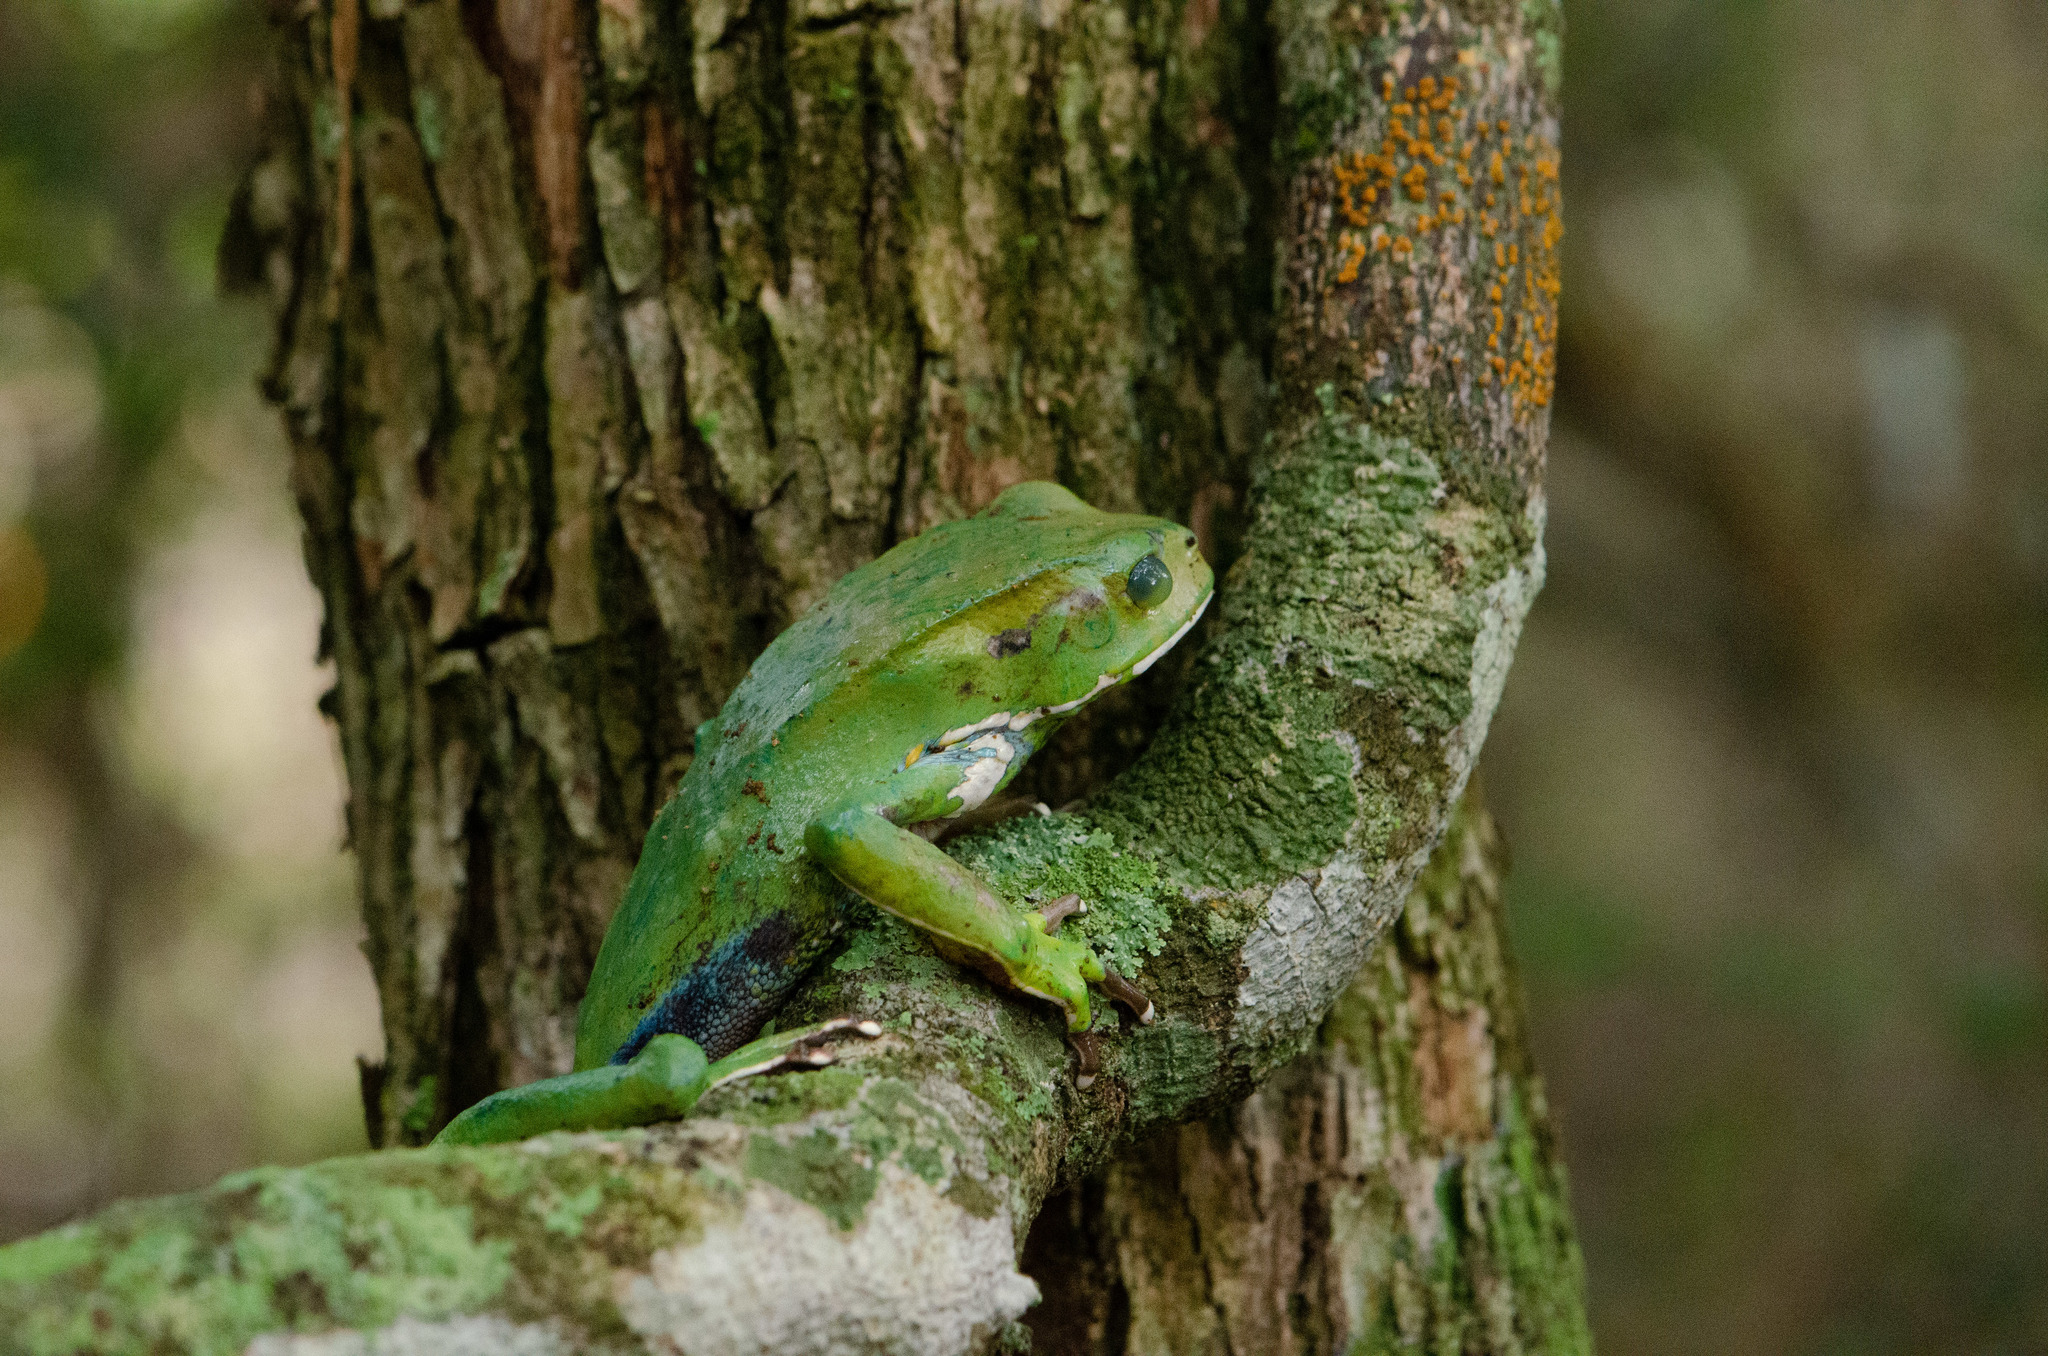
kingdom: Animalia
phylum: Chordata
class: Amphibia
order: Anura
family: Phyllomedusidae
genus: Phyllomedusa
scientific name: Phyllomedusa bahiana
